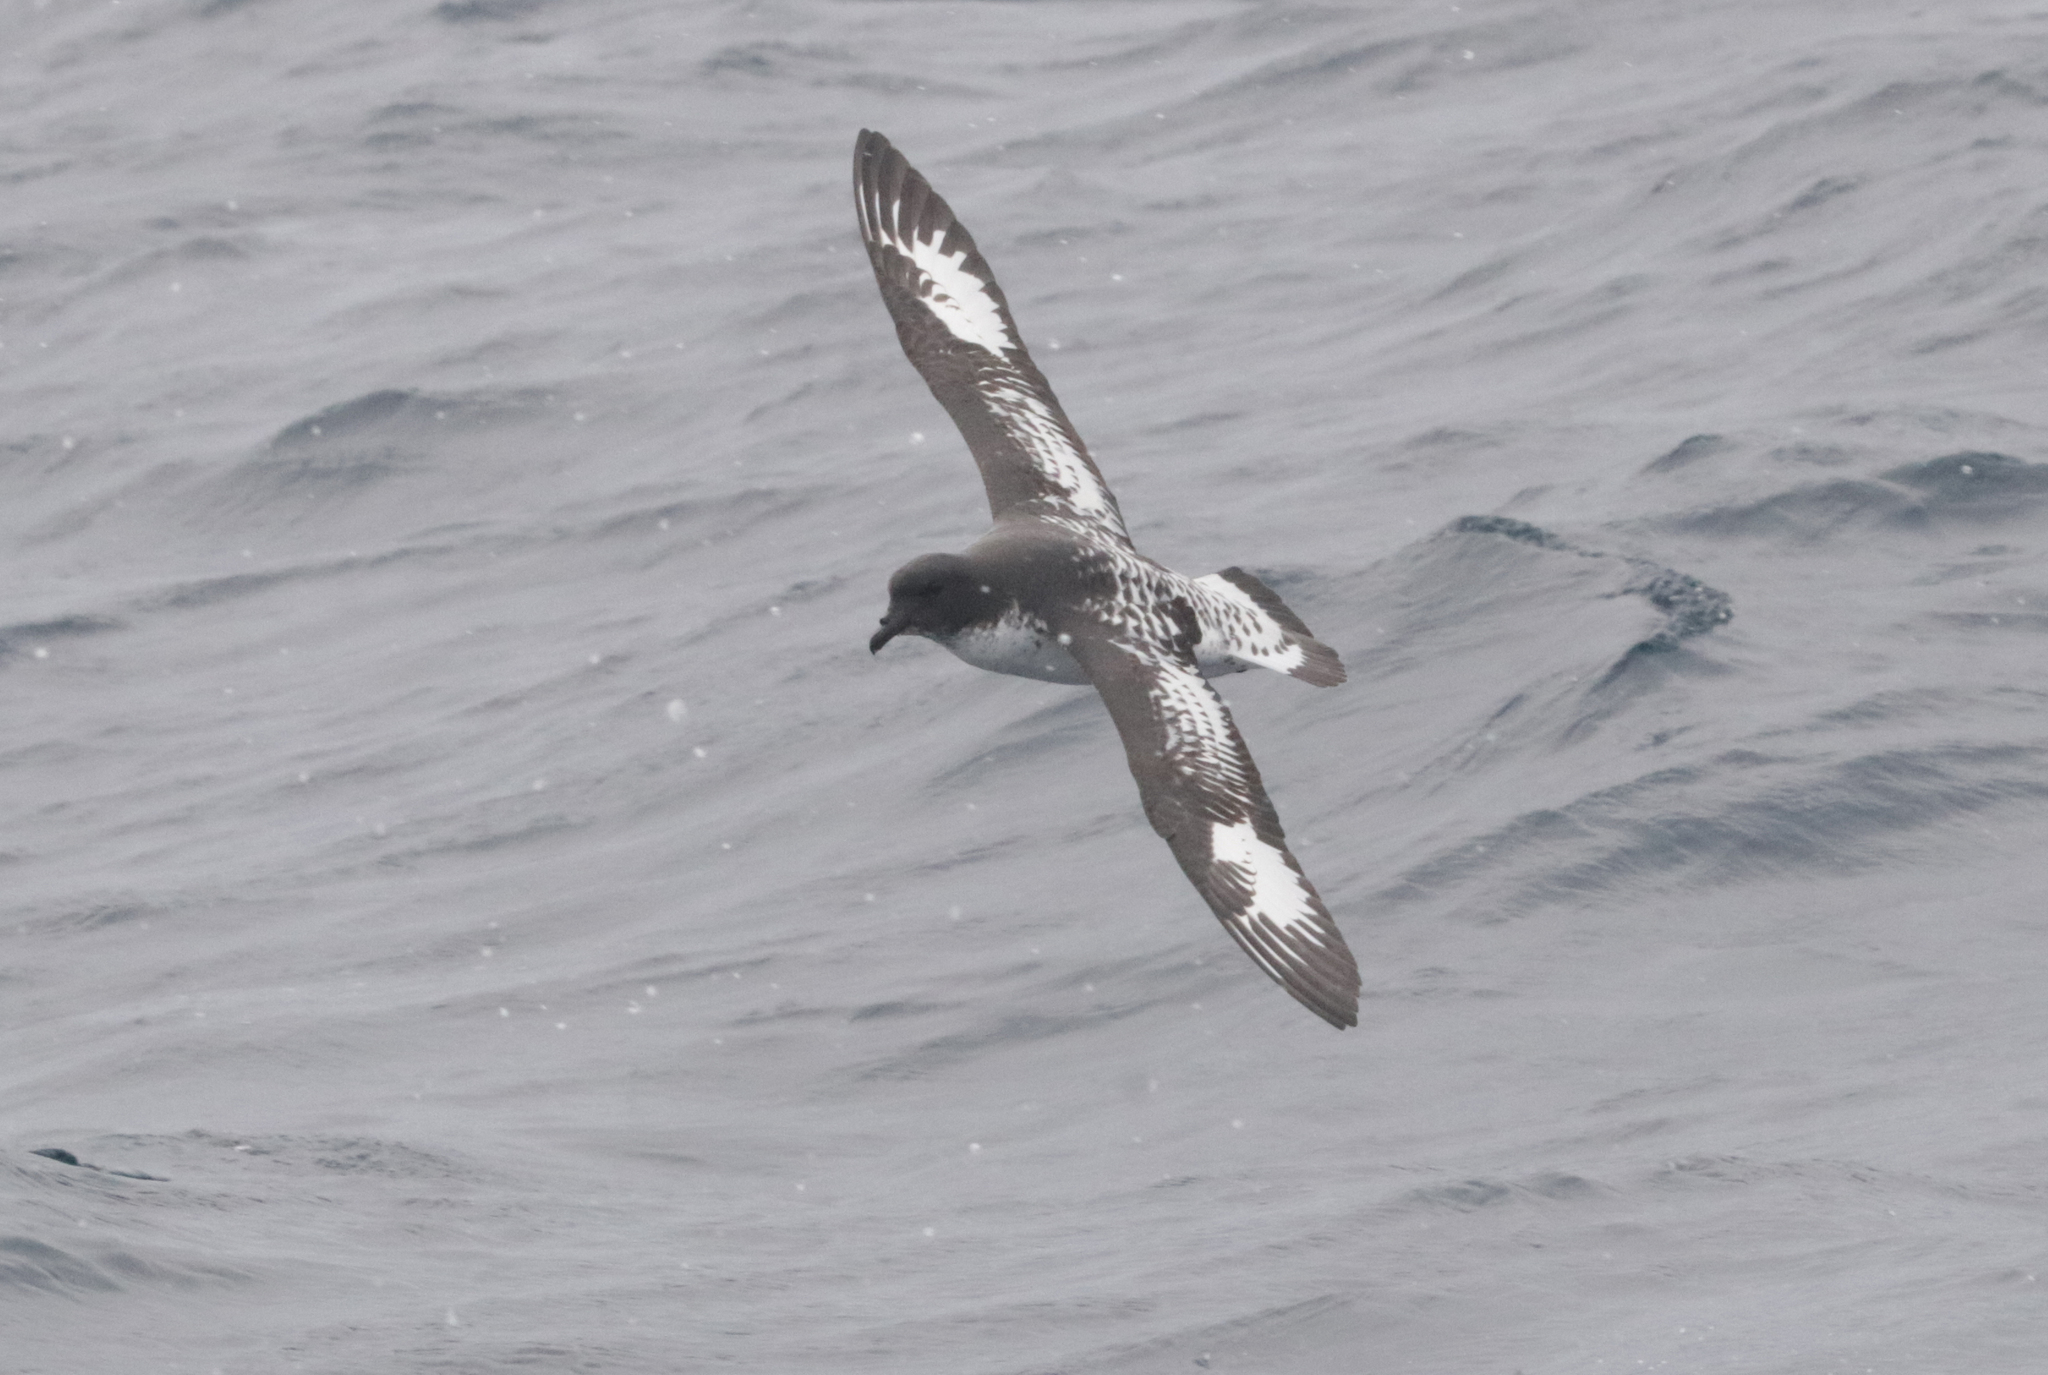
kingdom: Animalia
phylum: Chordata
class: Aves
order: Procellariiformes
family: Procellariidae
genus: Daption
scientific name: Daption capense
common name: Cape petrel
